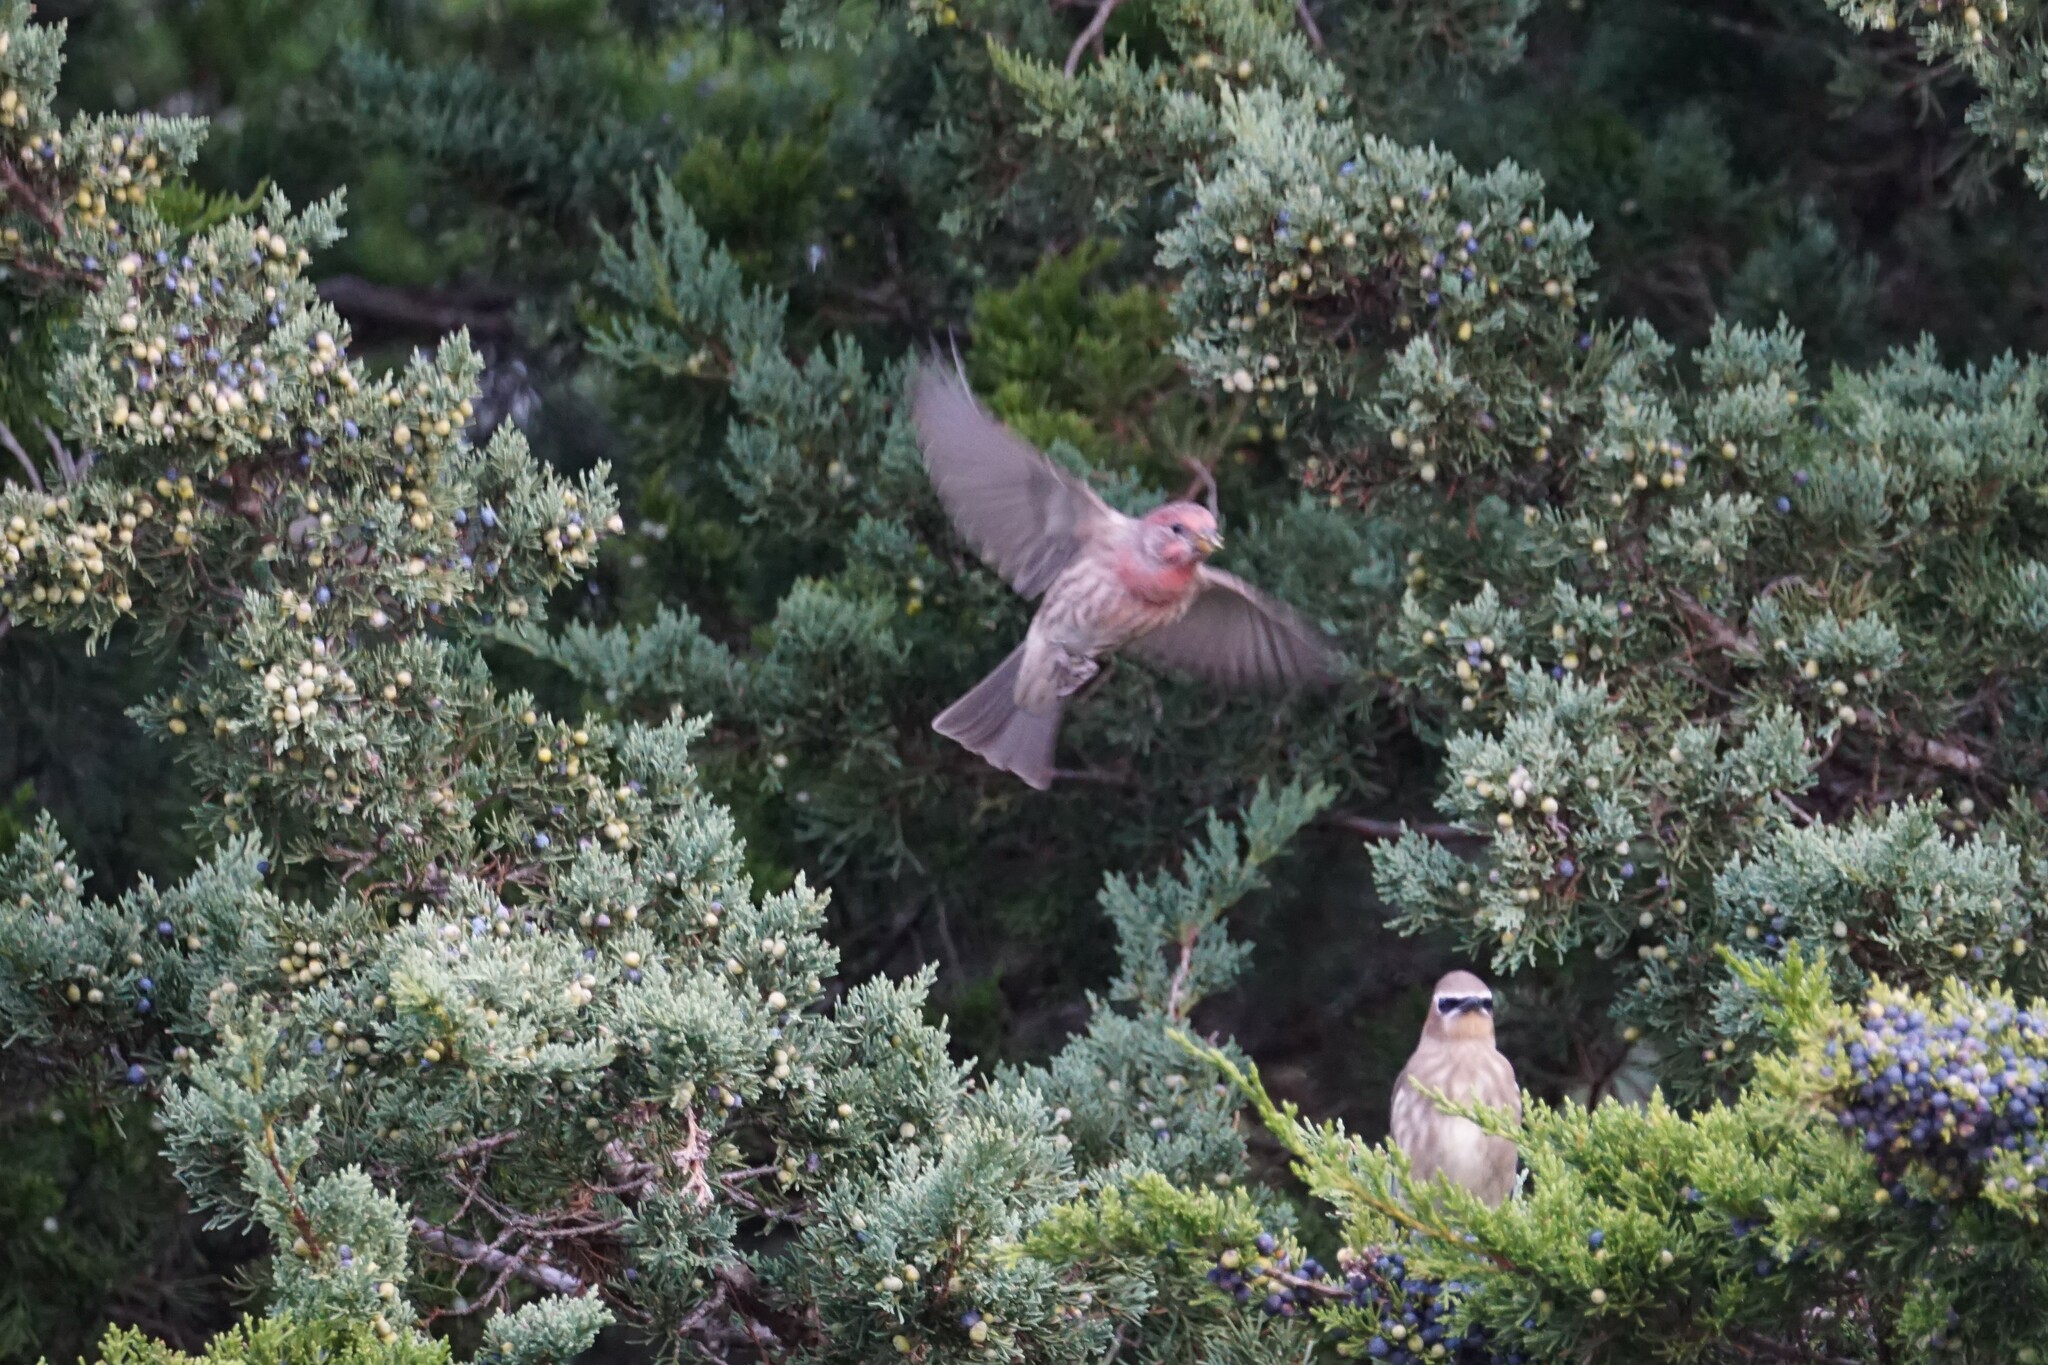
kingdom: Animalia
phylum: Chordata
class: Aves
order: Passeriformes
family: Fringillidae
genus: Haemorhous
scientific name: Haemorhous mexicanus
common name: House finch
